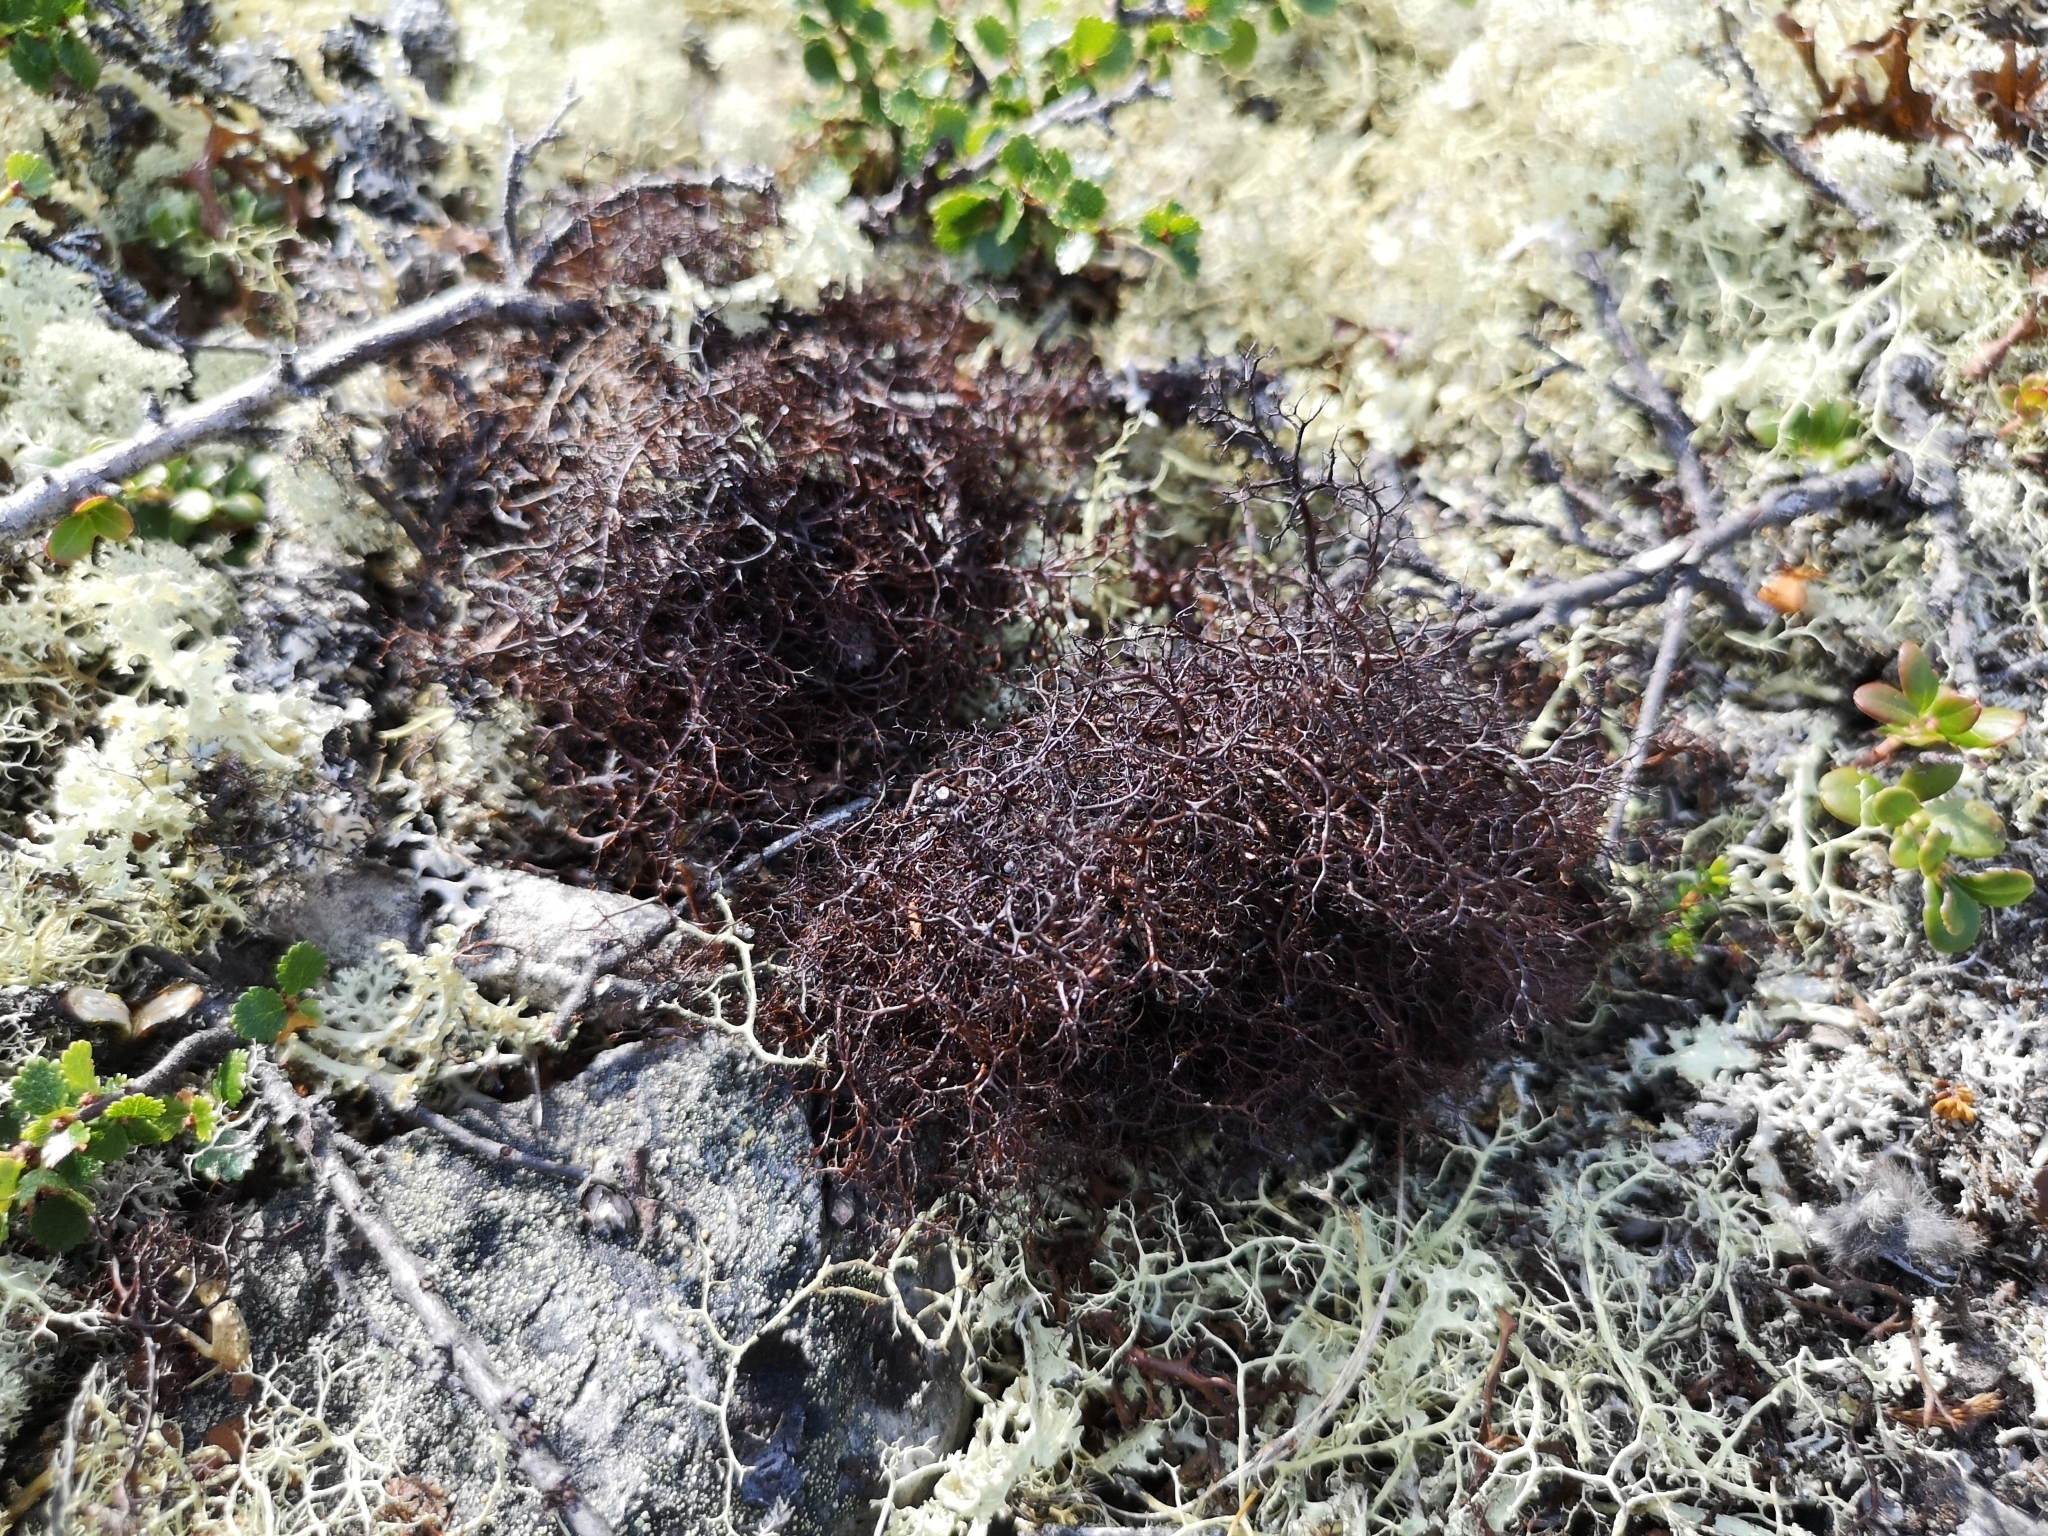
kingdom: Fungi
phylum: Ascomycota
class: Lecanoromycetes
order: Lecanorales
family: Parmeliaceae
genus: Cetraria
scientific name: Cetraria muricata
